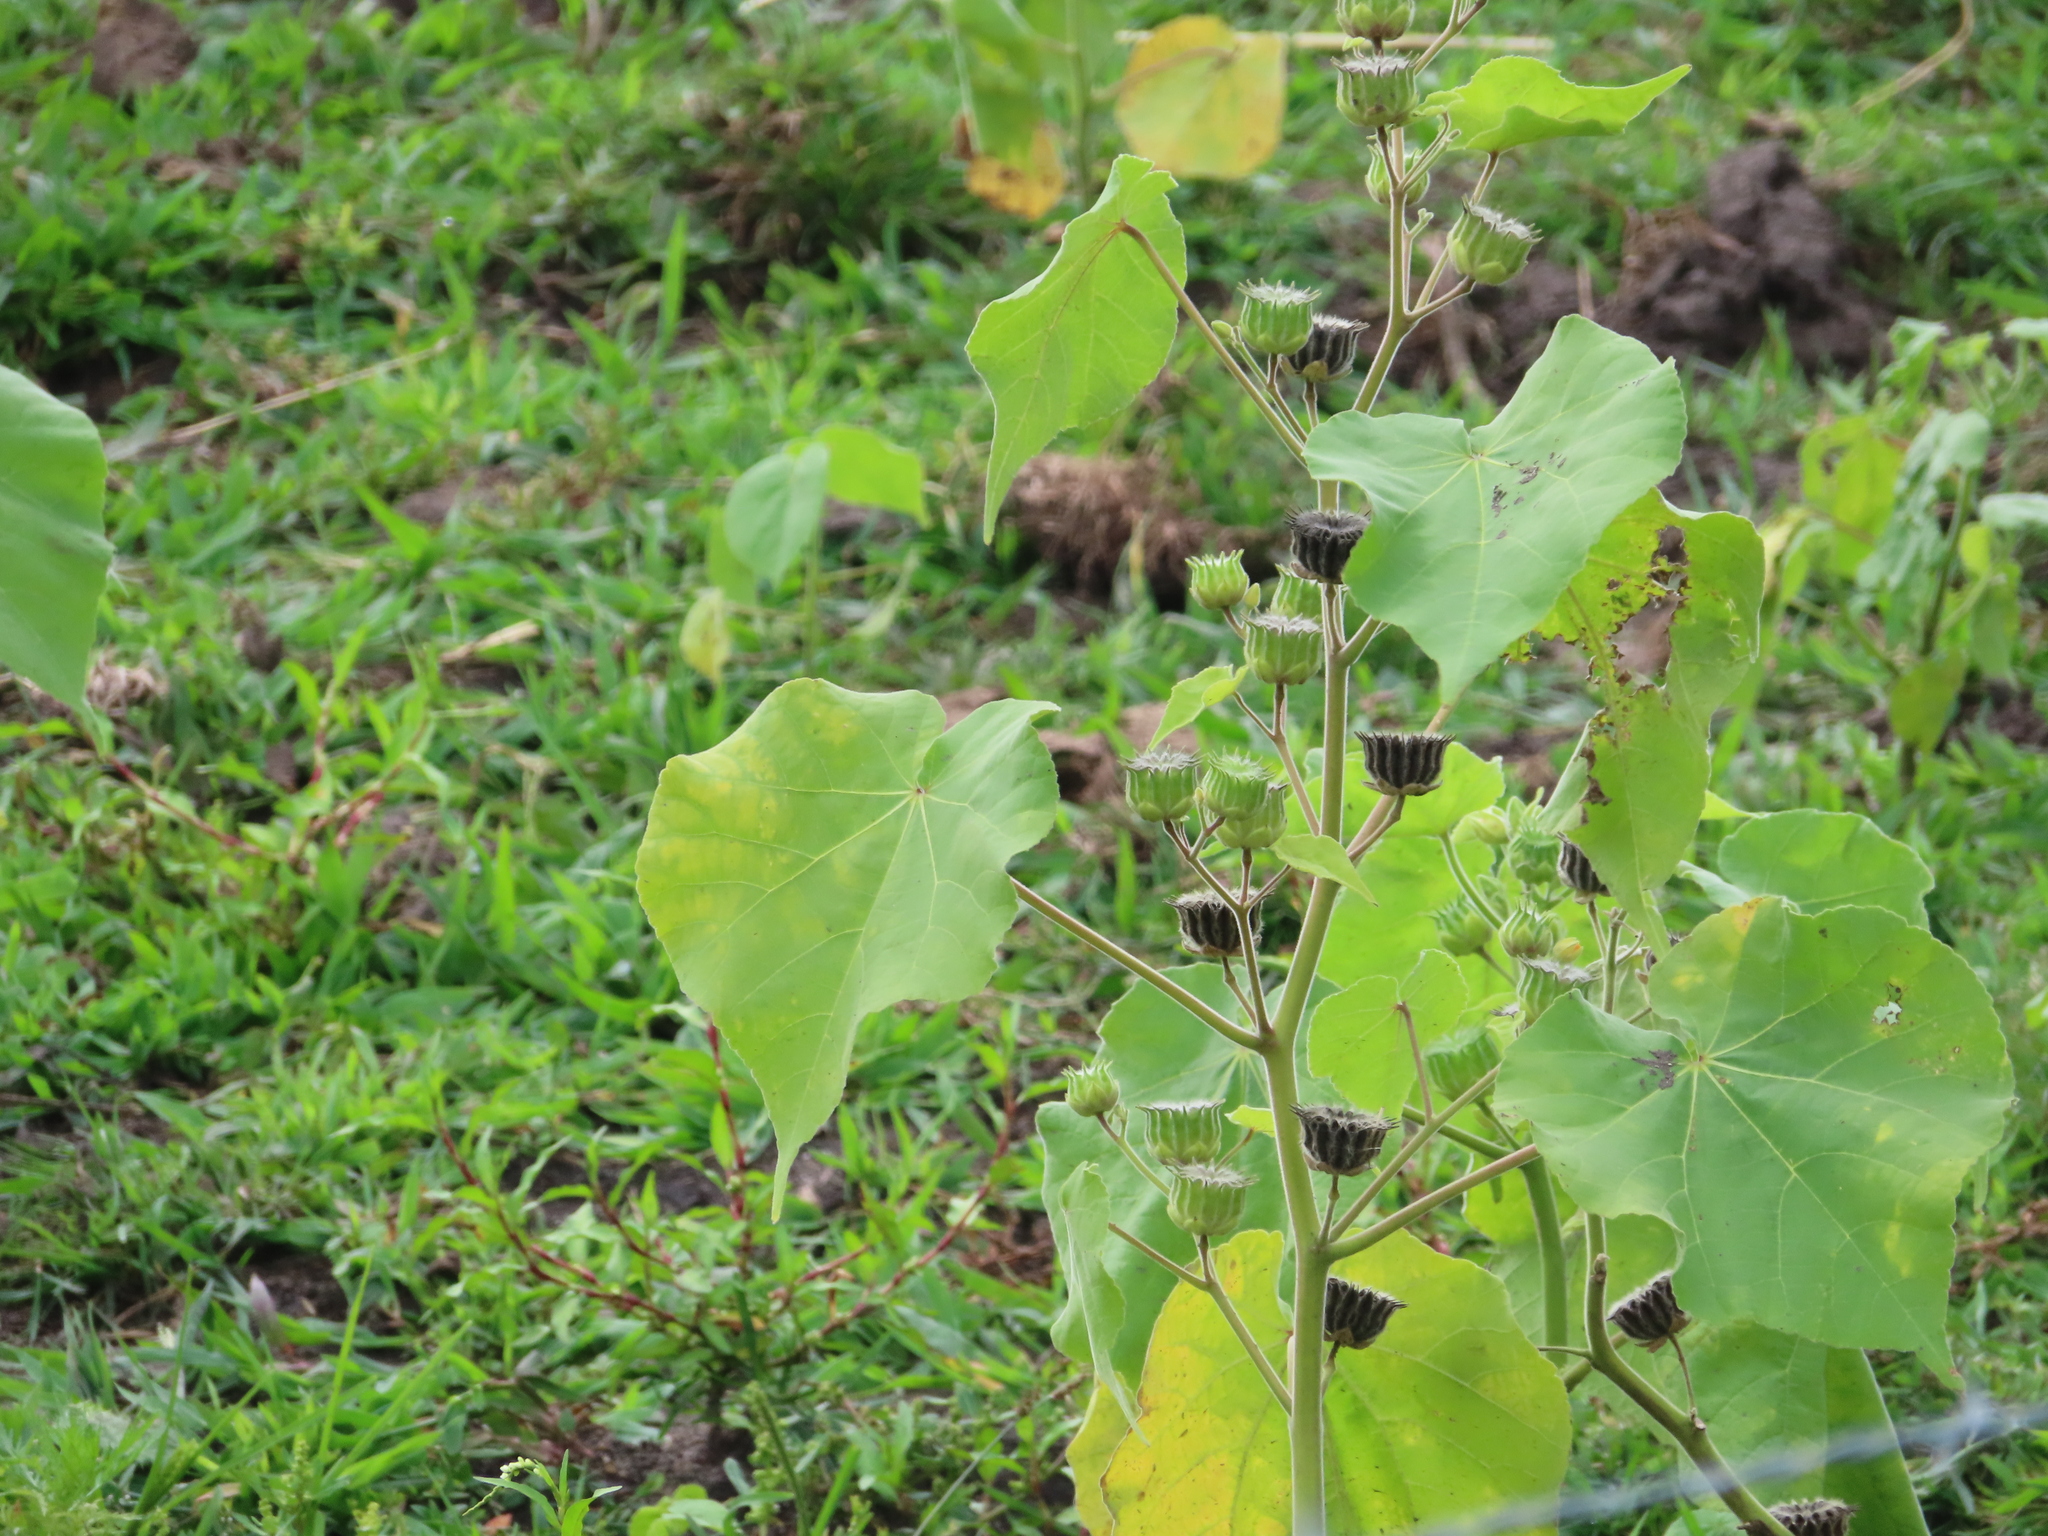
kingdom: Plantae
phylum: Tracheophyta
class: Magnoliopsida
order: Malvales
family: Malvaceae
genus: Abutilon
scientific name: Abutilon theophrasti
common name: Velvetleaf
